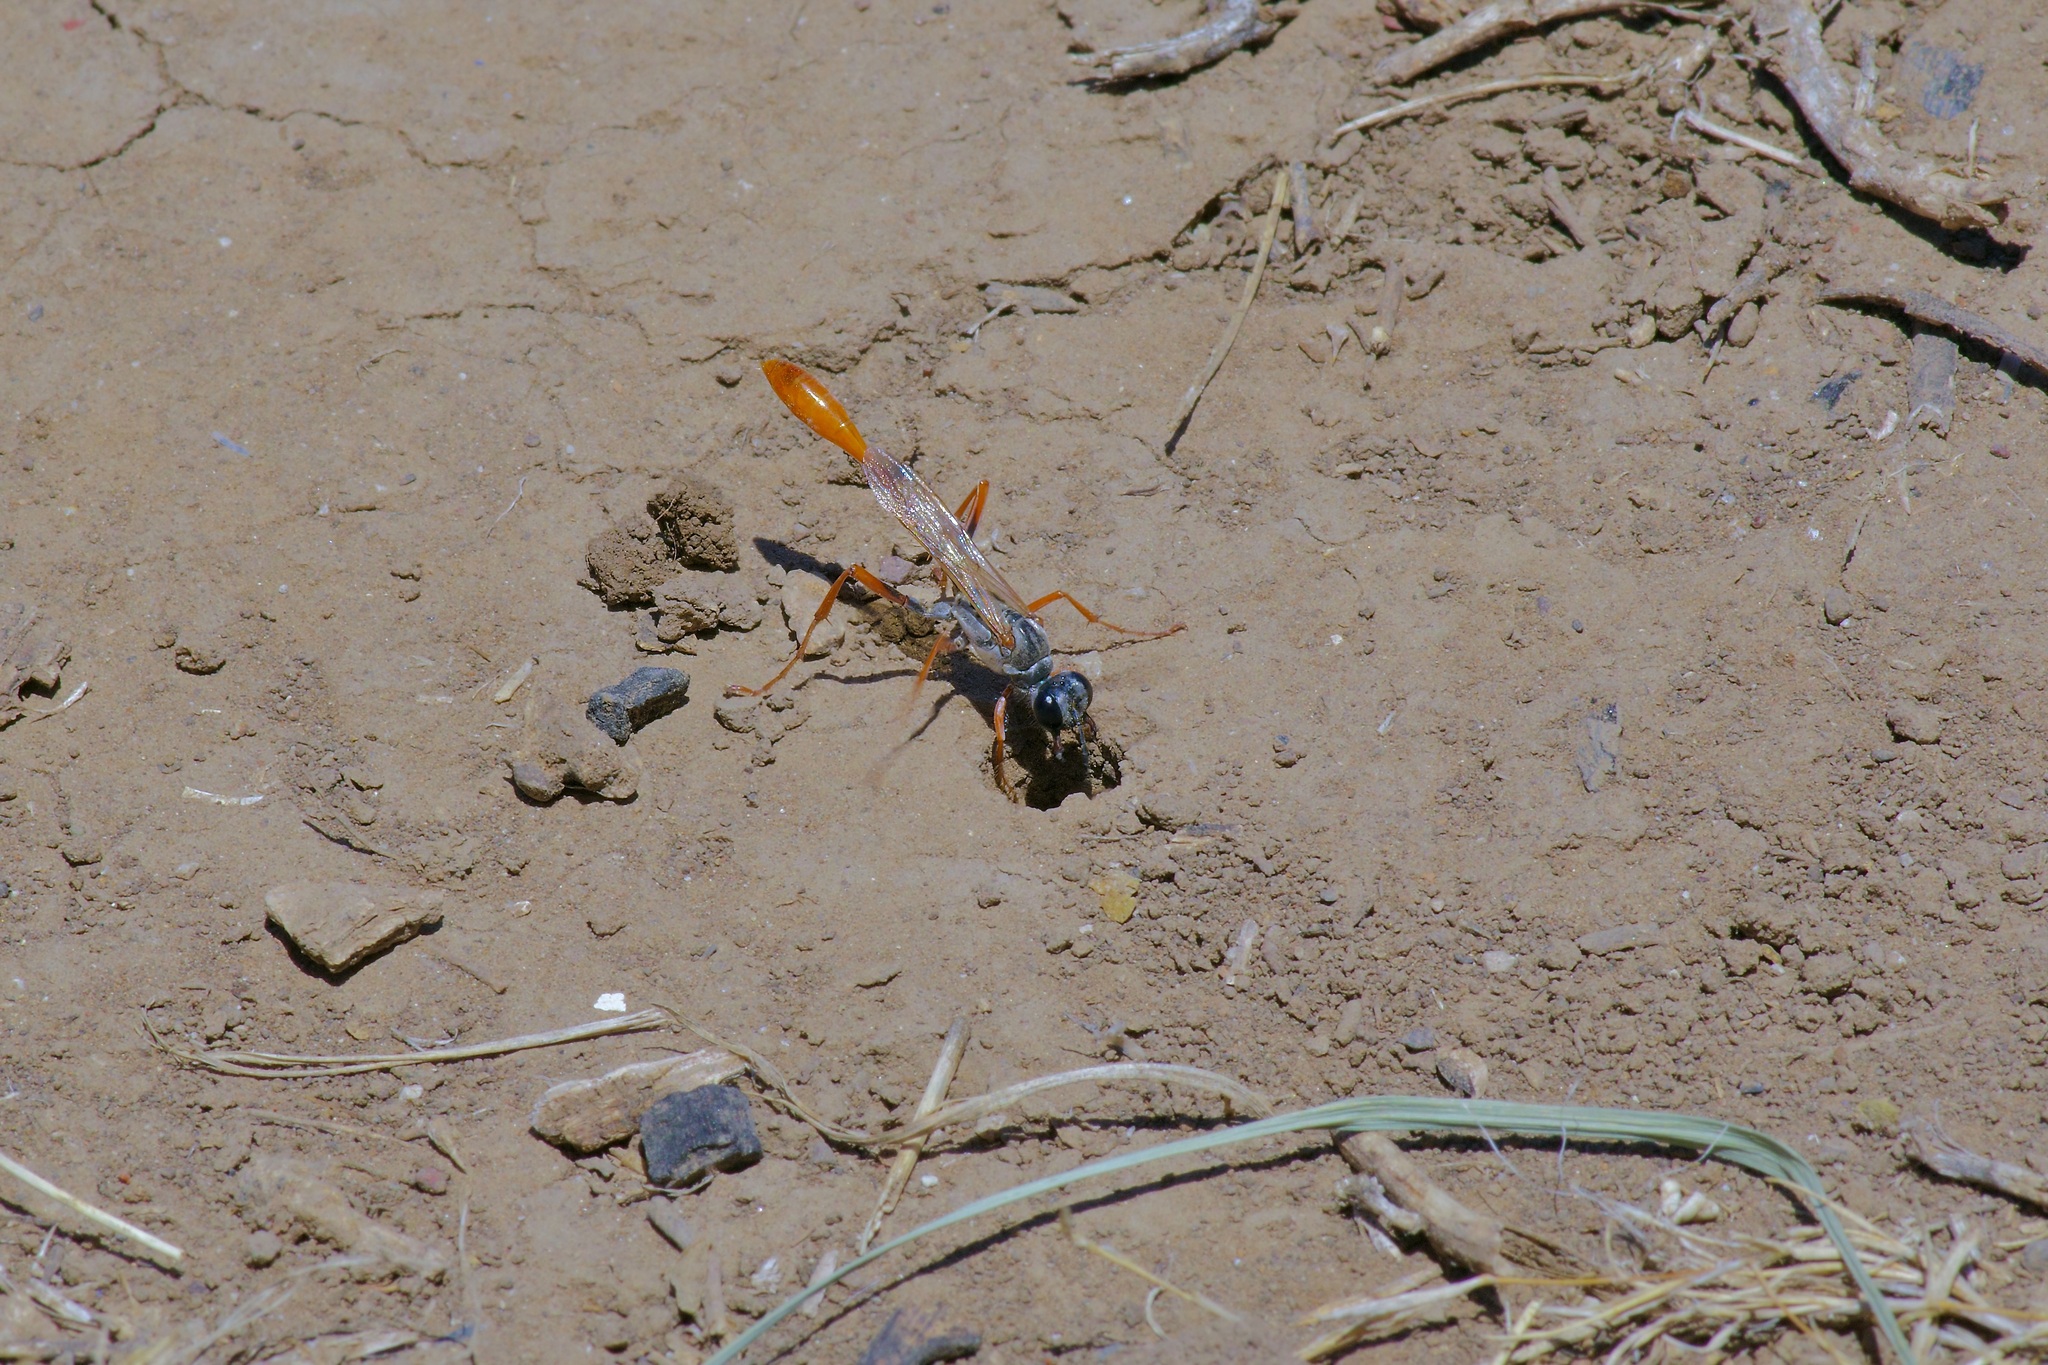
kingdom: Animalia
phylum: Arthropoda
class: Insecta
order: Hymenoptera
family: Sphecidae
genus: Ammophila
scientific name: Ammophila aberti
